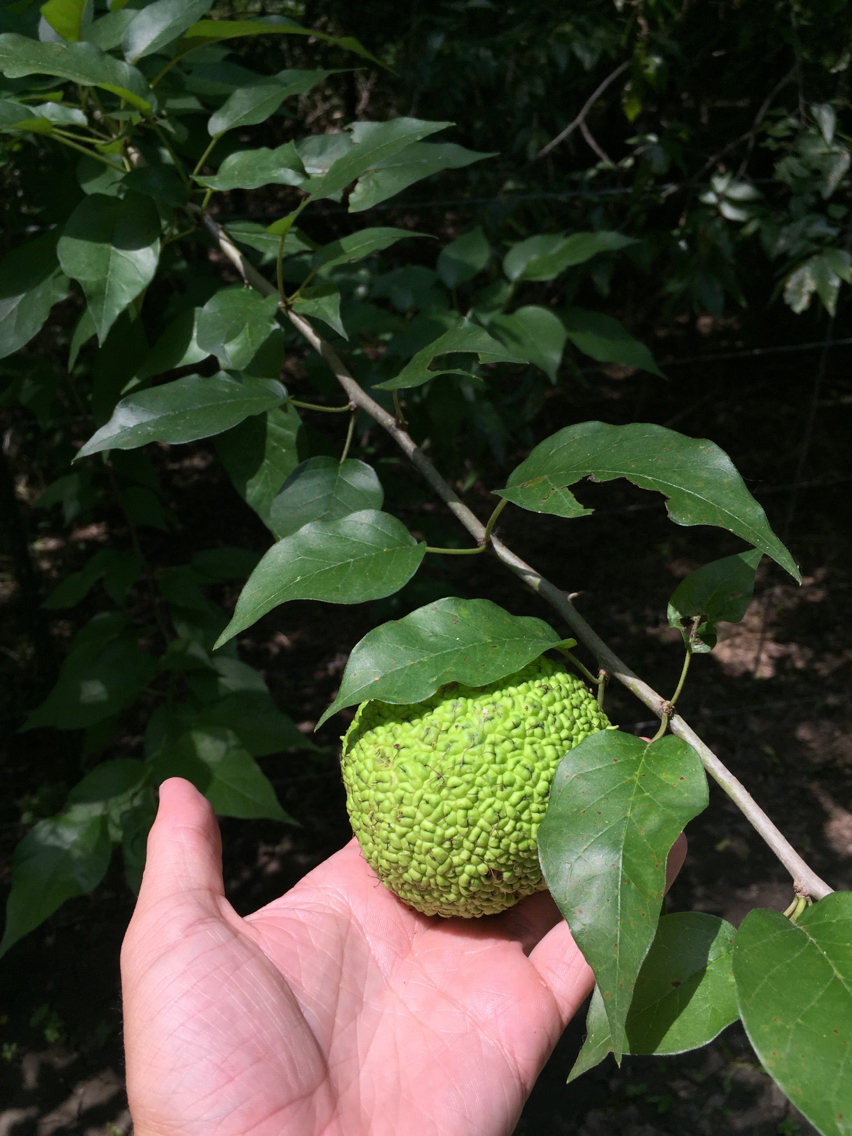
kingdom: Plantae
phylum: Tracheophyta
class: Magnoliopsida
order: Rosales
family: Moraceae
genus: Maclura
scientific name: Maclura pomifera
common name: Osage-orange
